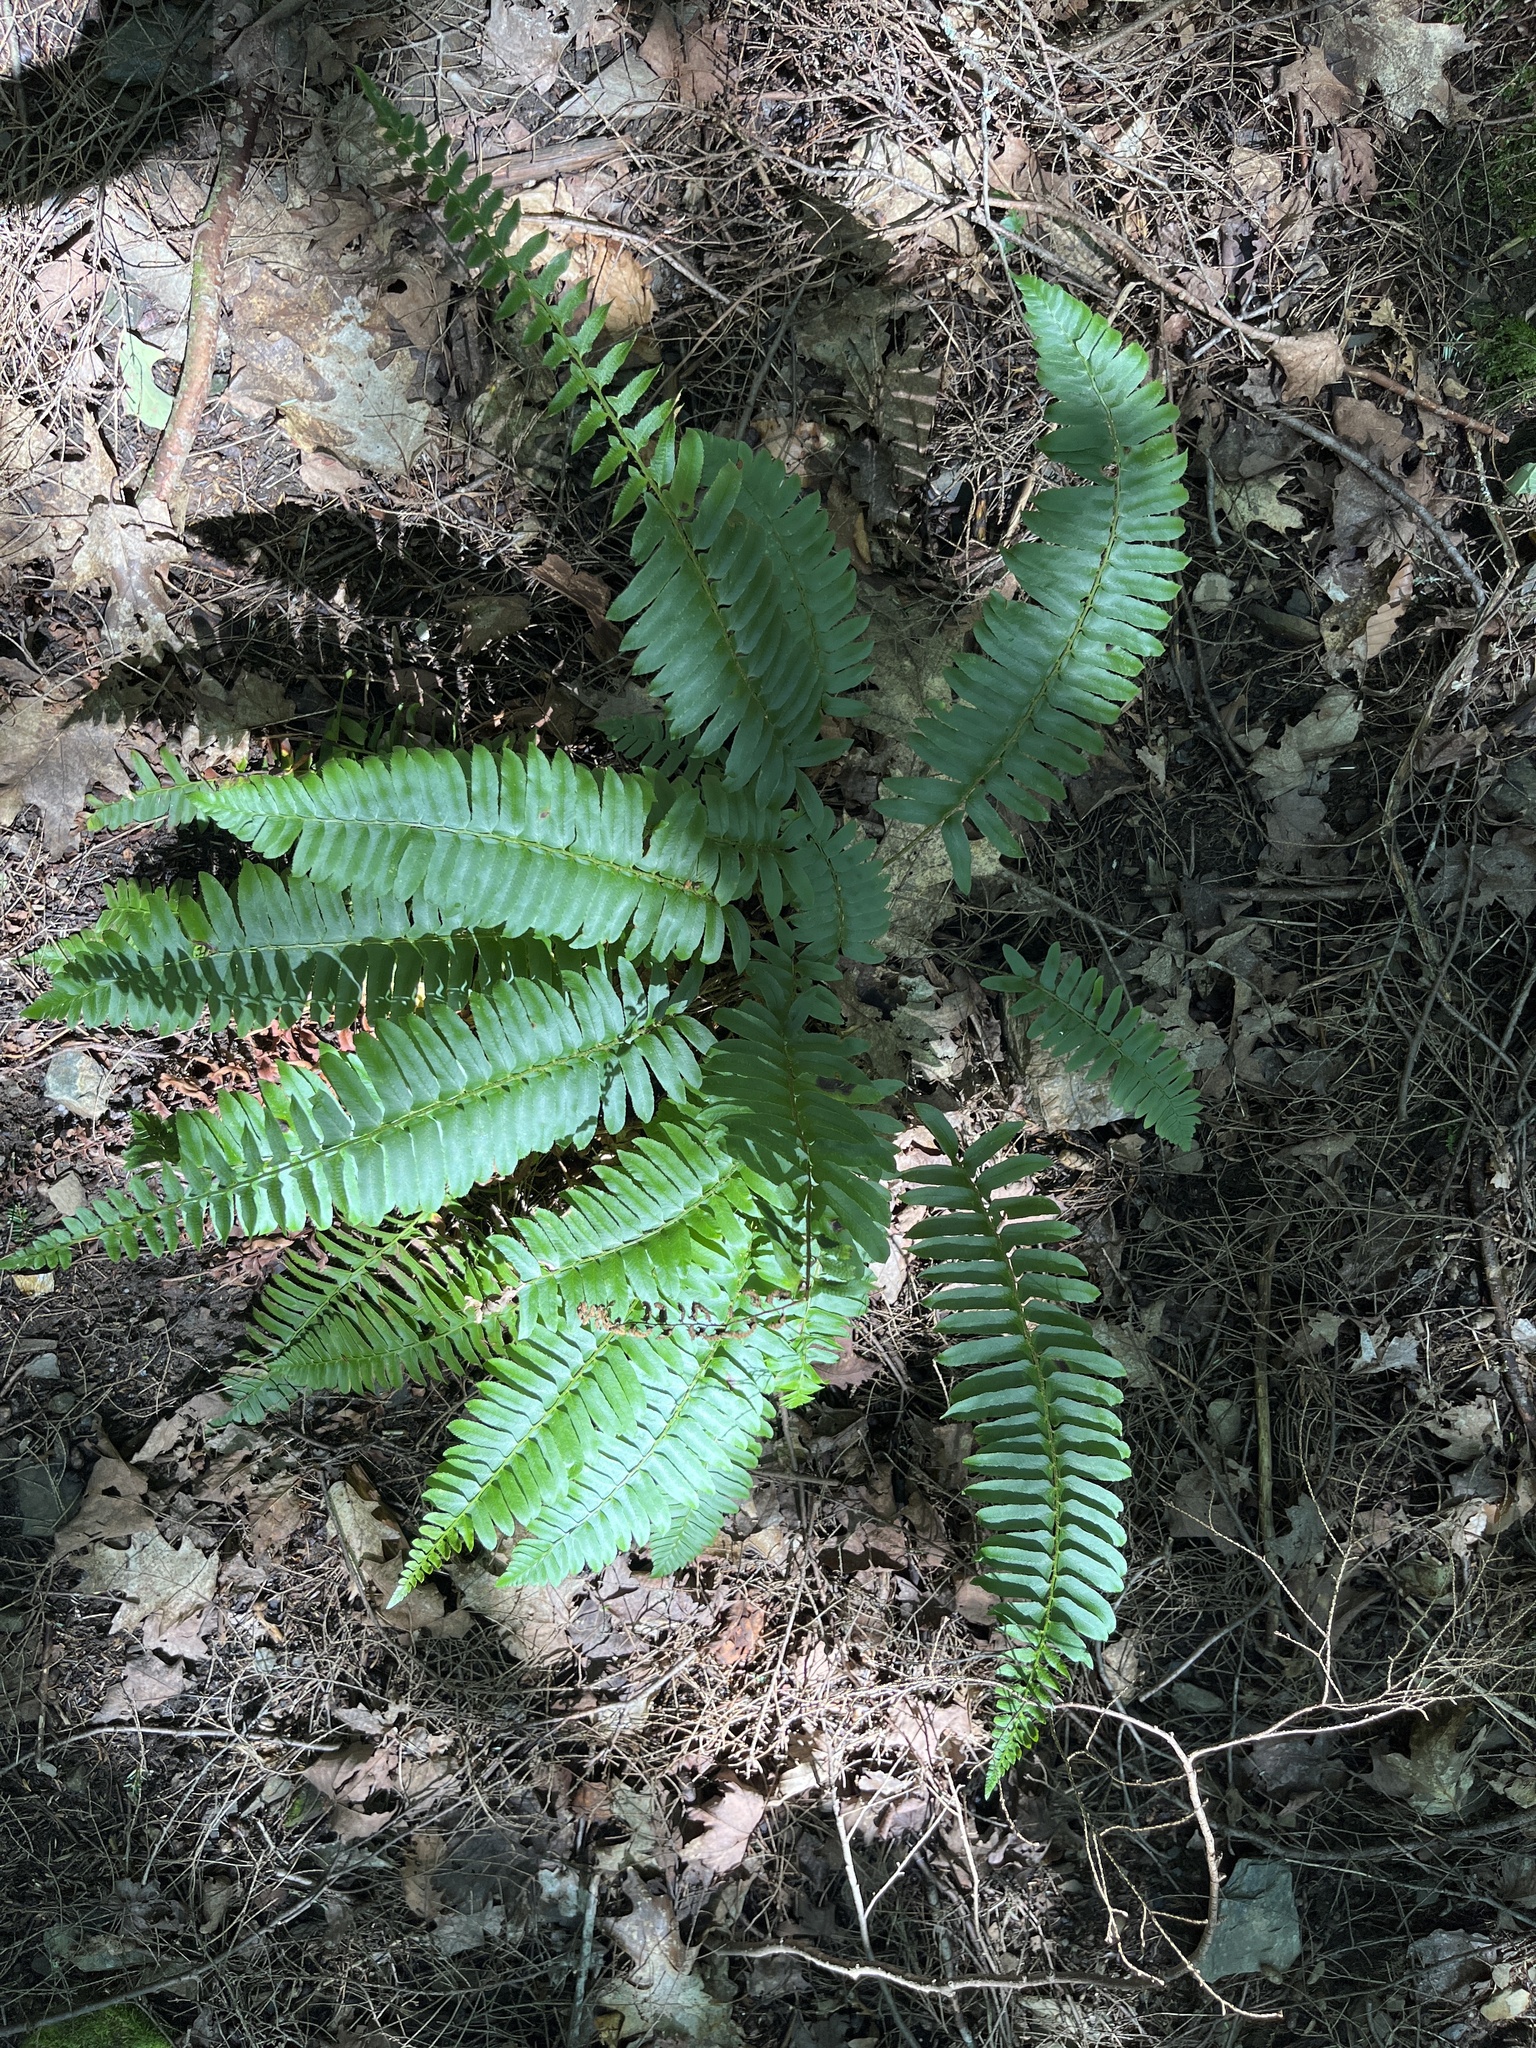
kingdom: Plantae
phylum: Tracheophyta
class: Polypodiopsida
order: Polypodiales
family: Dryopteridaceae
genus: Polystichum
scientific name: Polystichum acrostichoides
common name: Christmas fern
